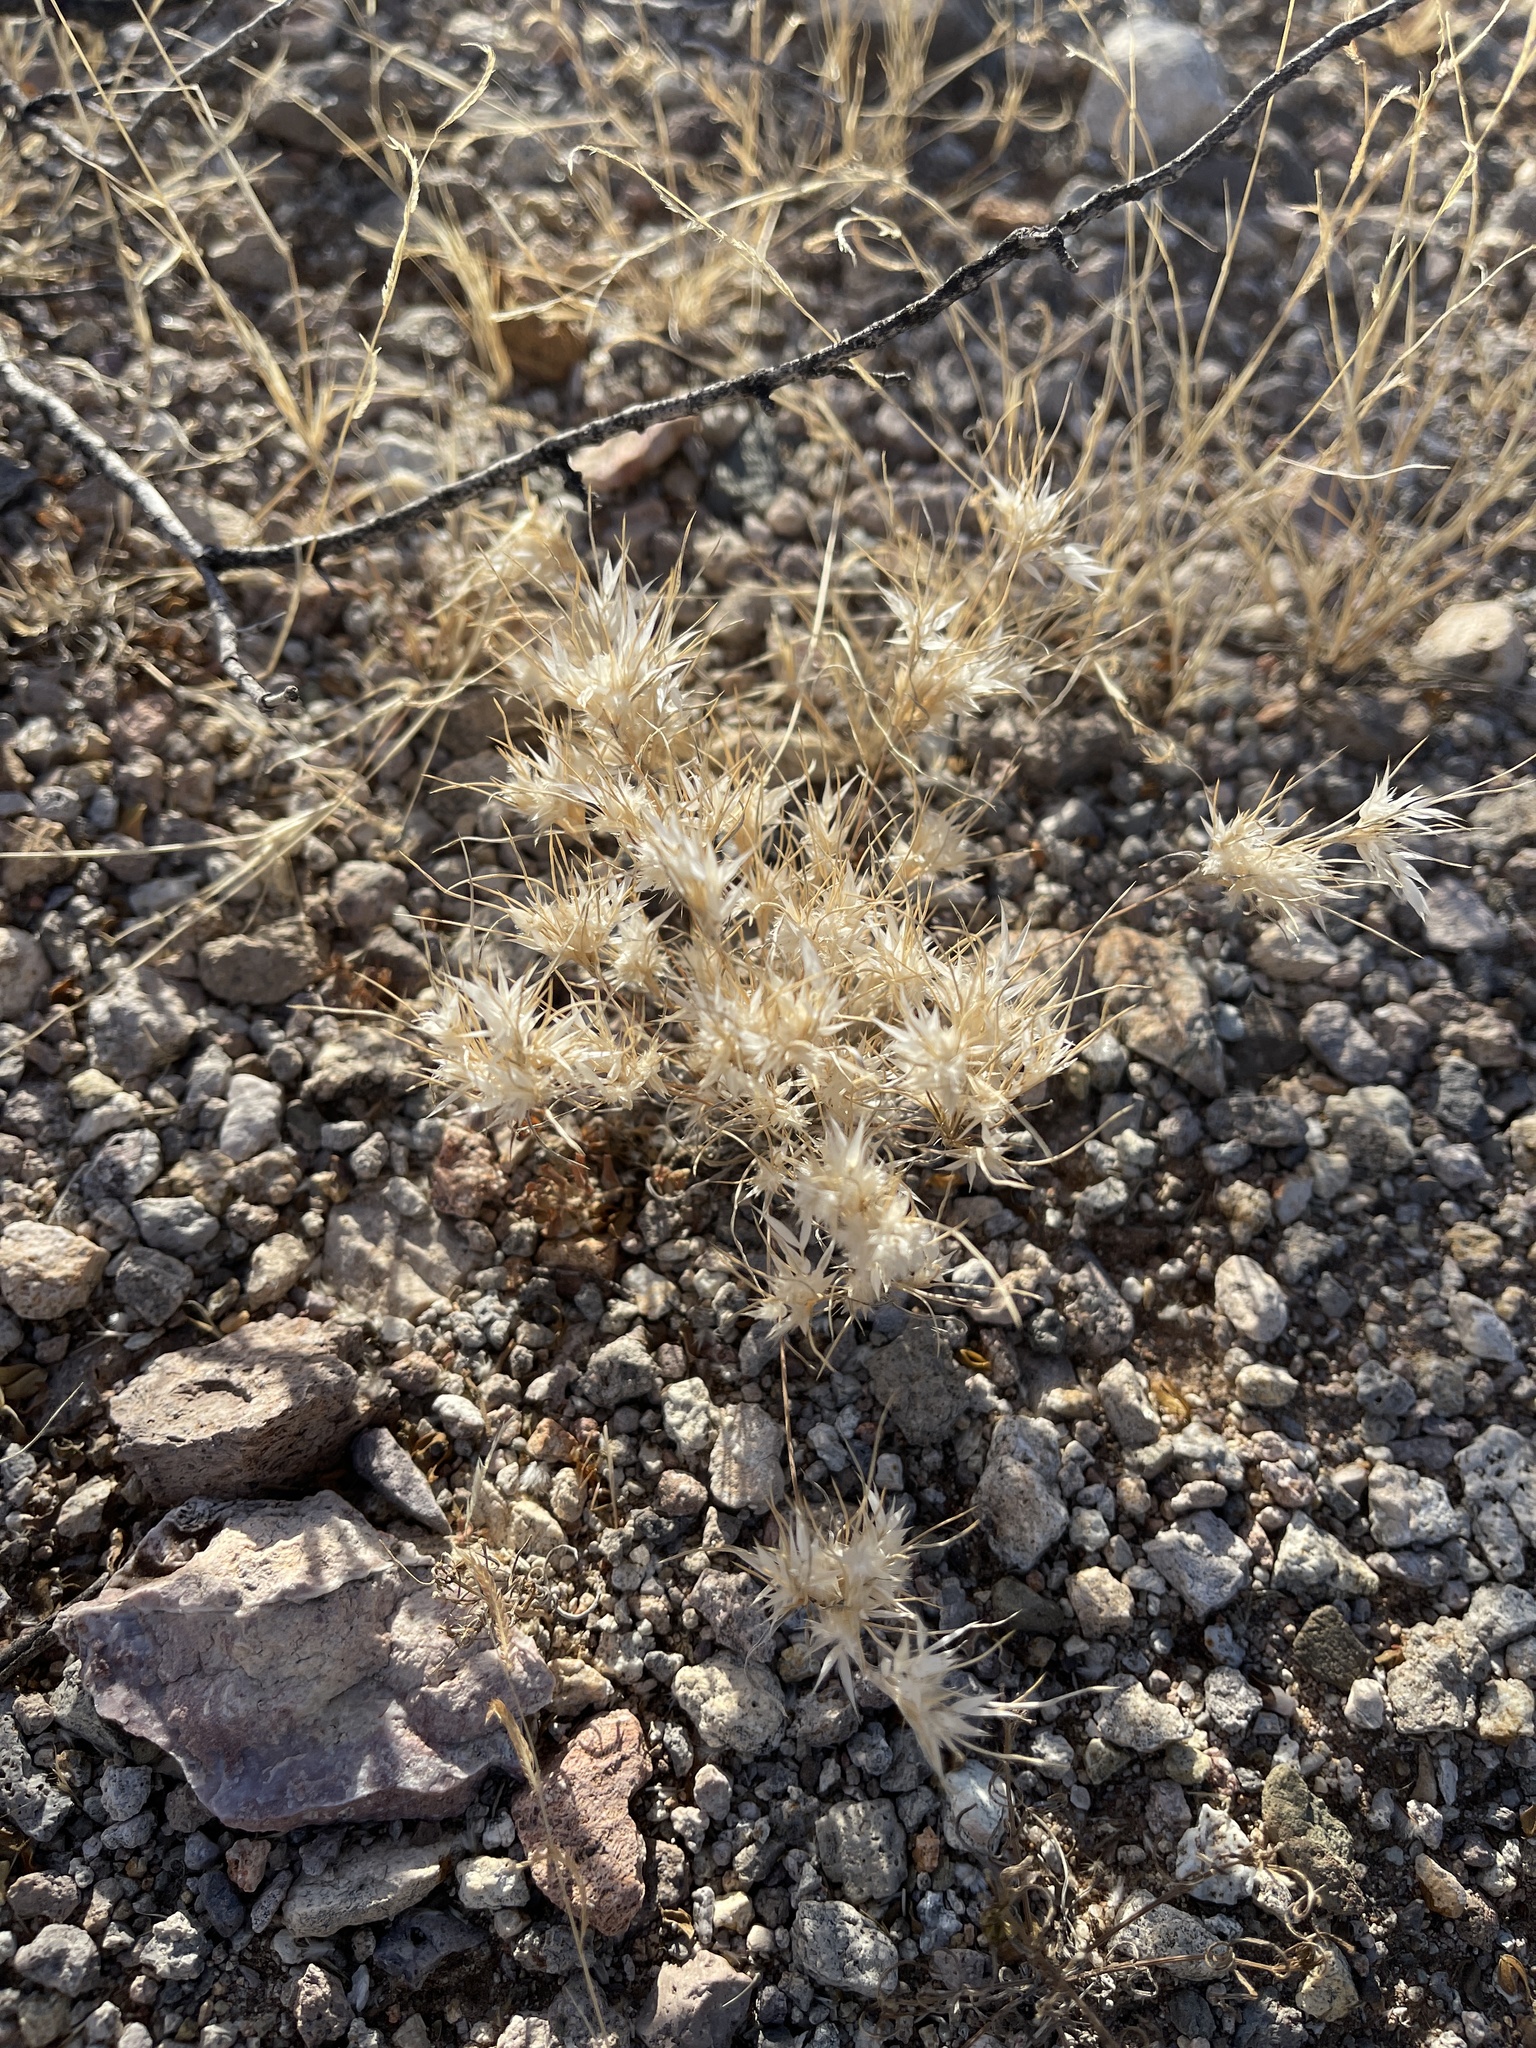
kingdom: Plantae
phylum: Tracheophyta
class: Liliopsida
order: Poales
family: Poaceae
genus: Dasyochloa
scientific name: Dasyochloa pulchella
